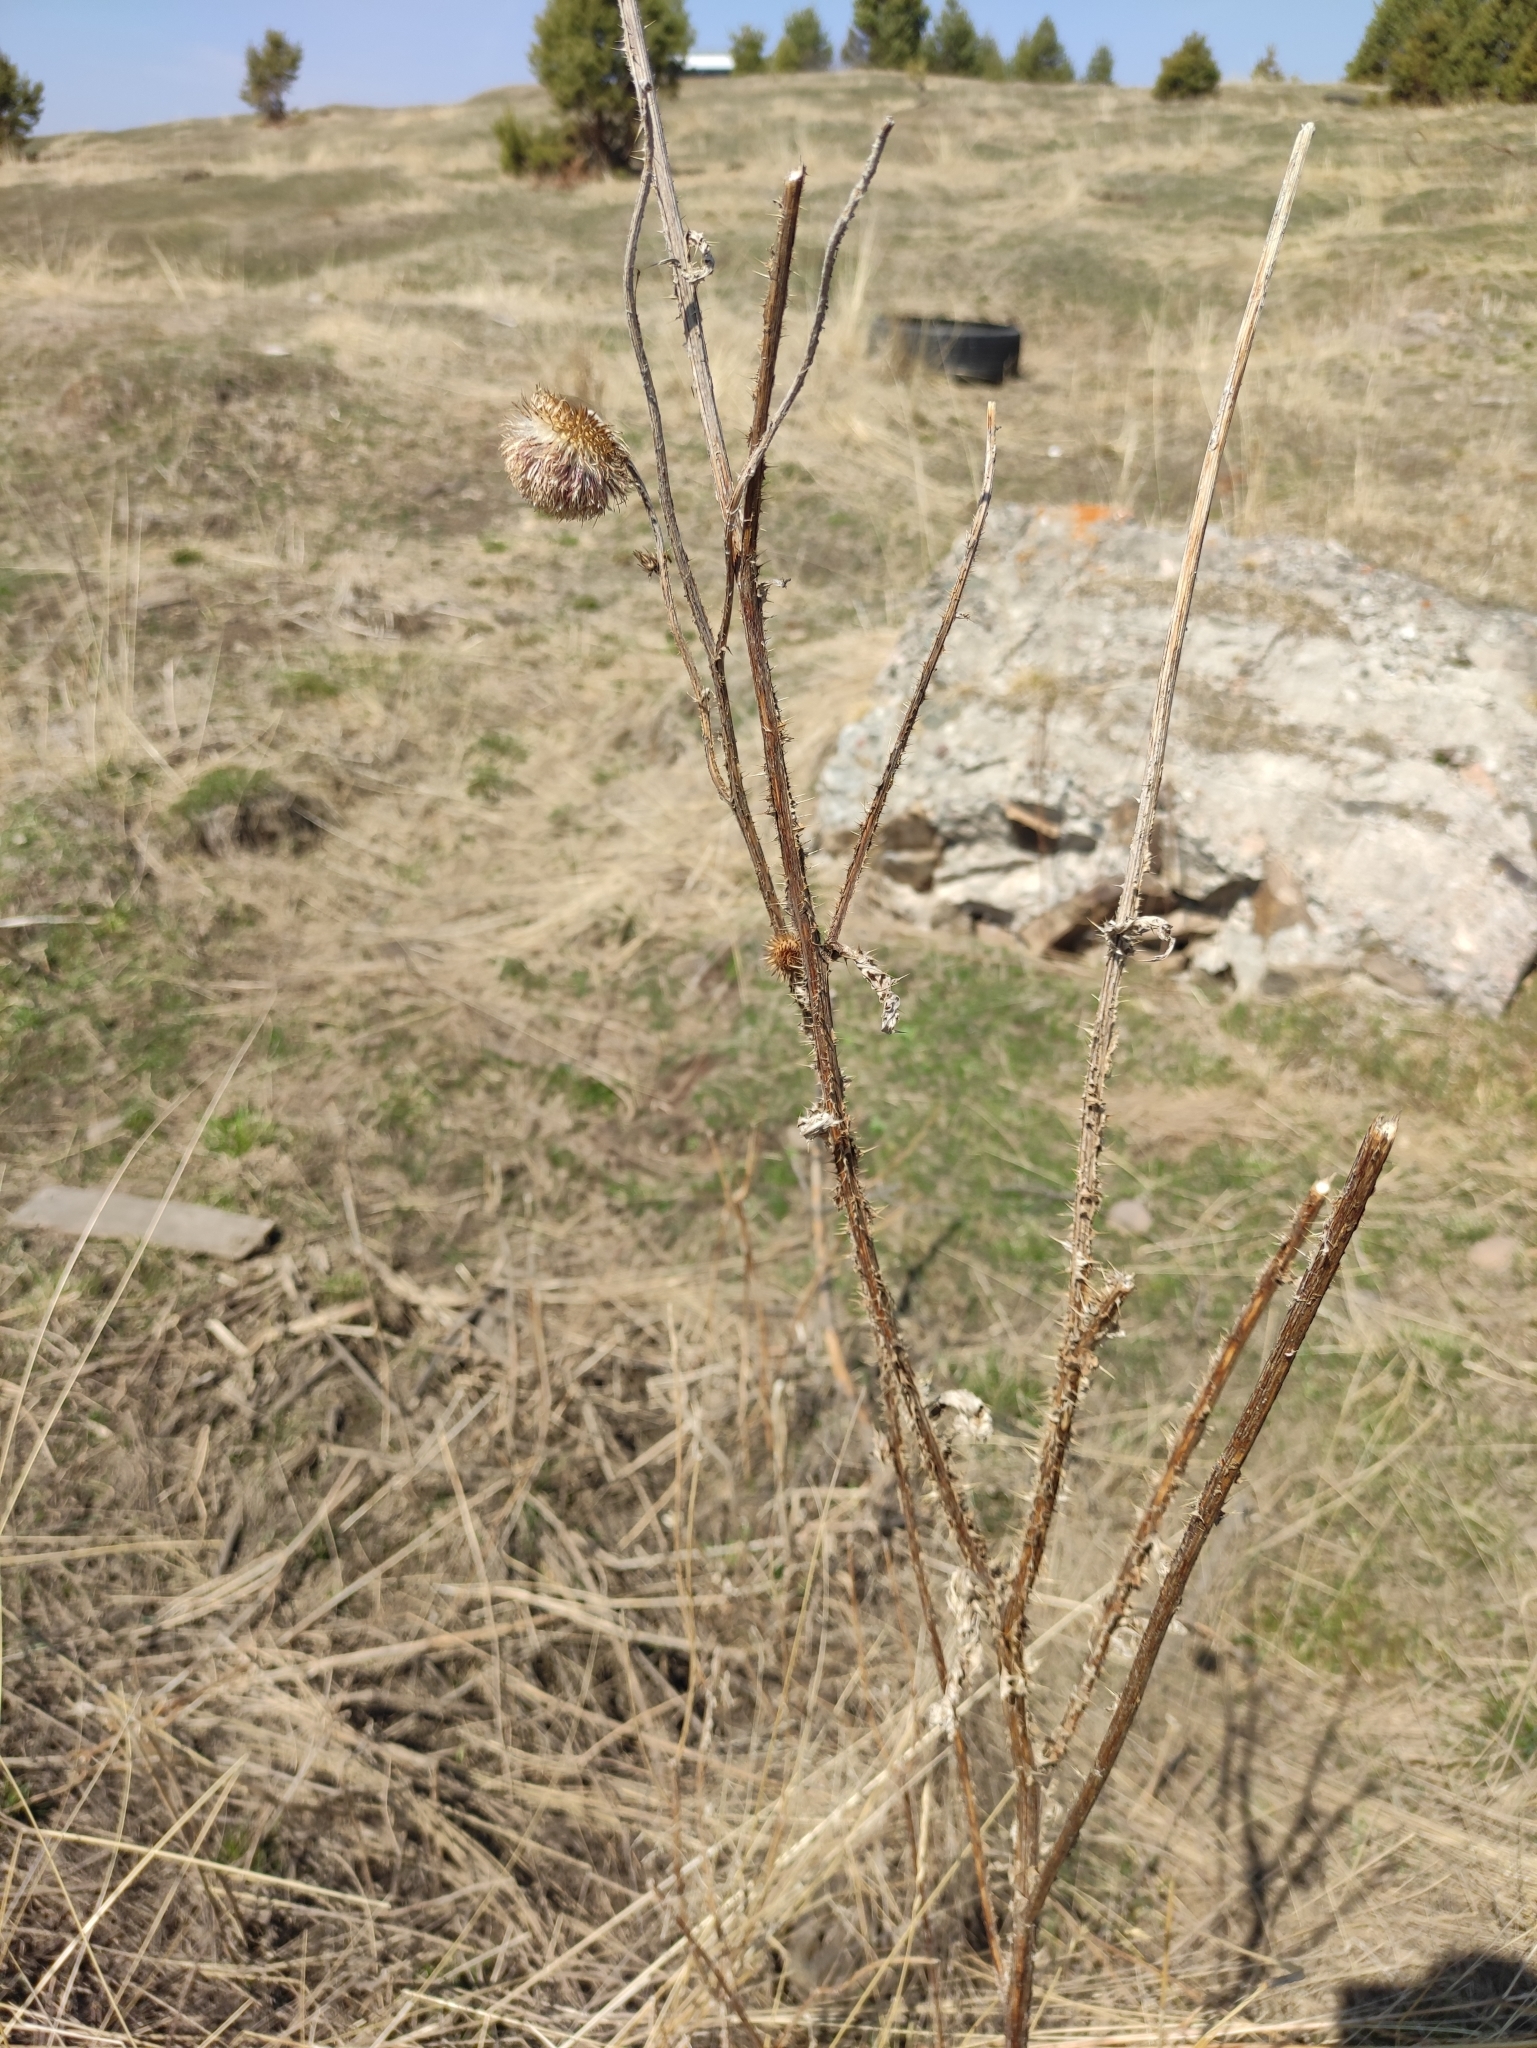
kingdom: Plantae
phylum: Tracheophyta
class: Magnoliopsida
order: Asterales
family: Asteraceae
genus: Carduus
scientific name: Carduus nutans
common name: Musk thistle
